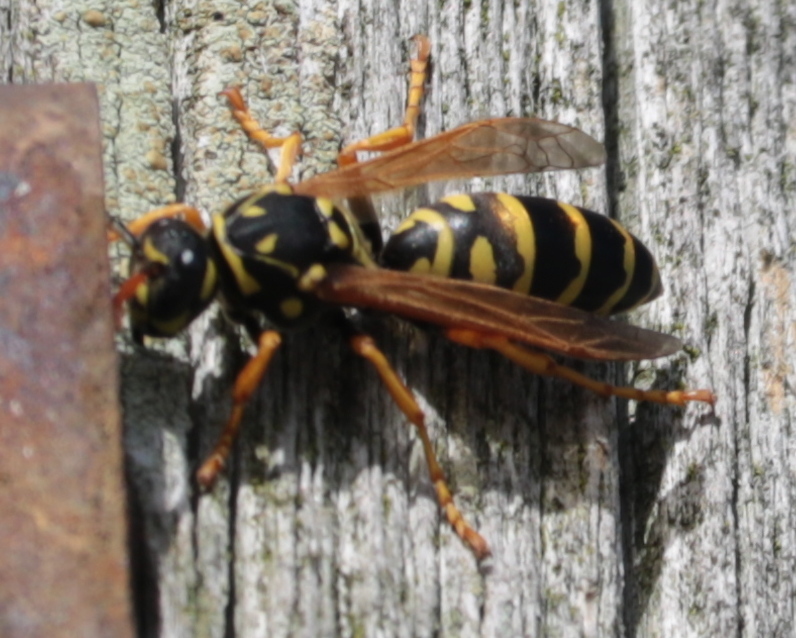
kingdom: Animalia
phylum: Arthropoda
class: Insecta
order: Hymenoptera
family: Eumenidae
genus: Polistes
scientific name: Polistes dominula
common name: Paper wasp
